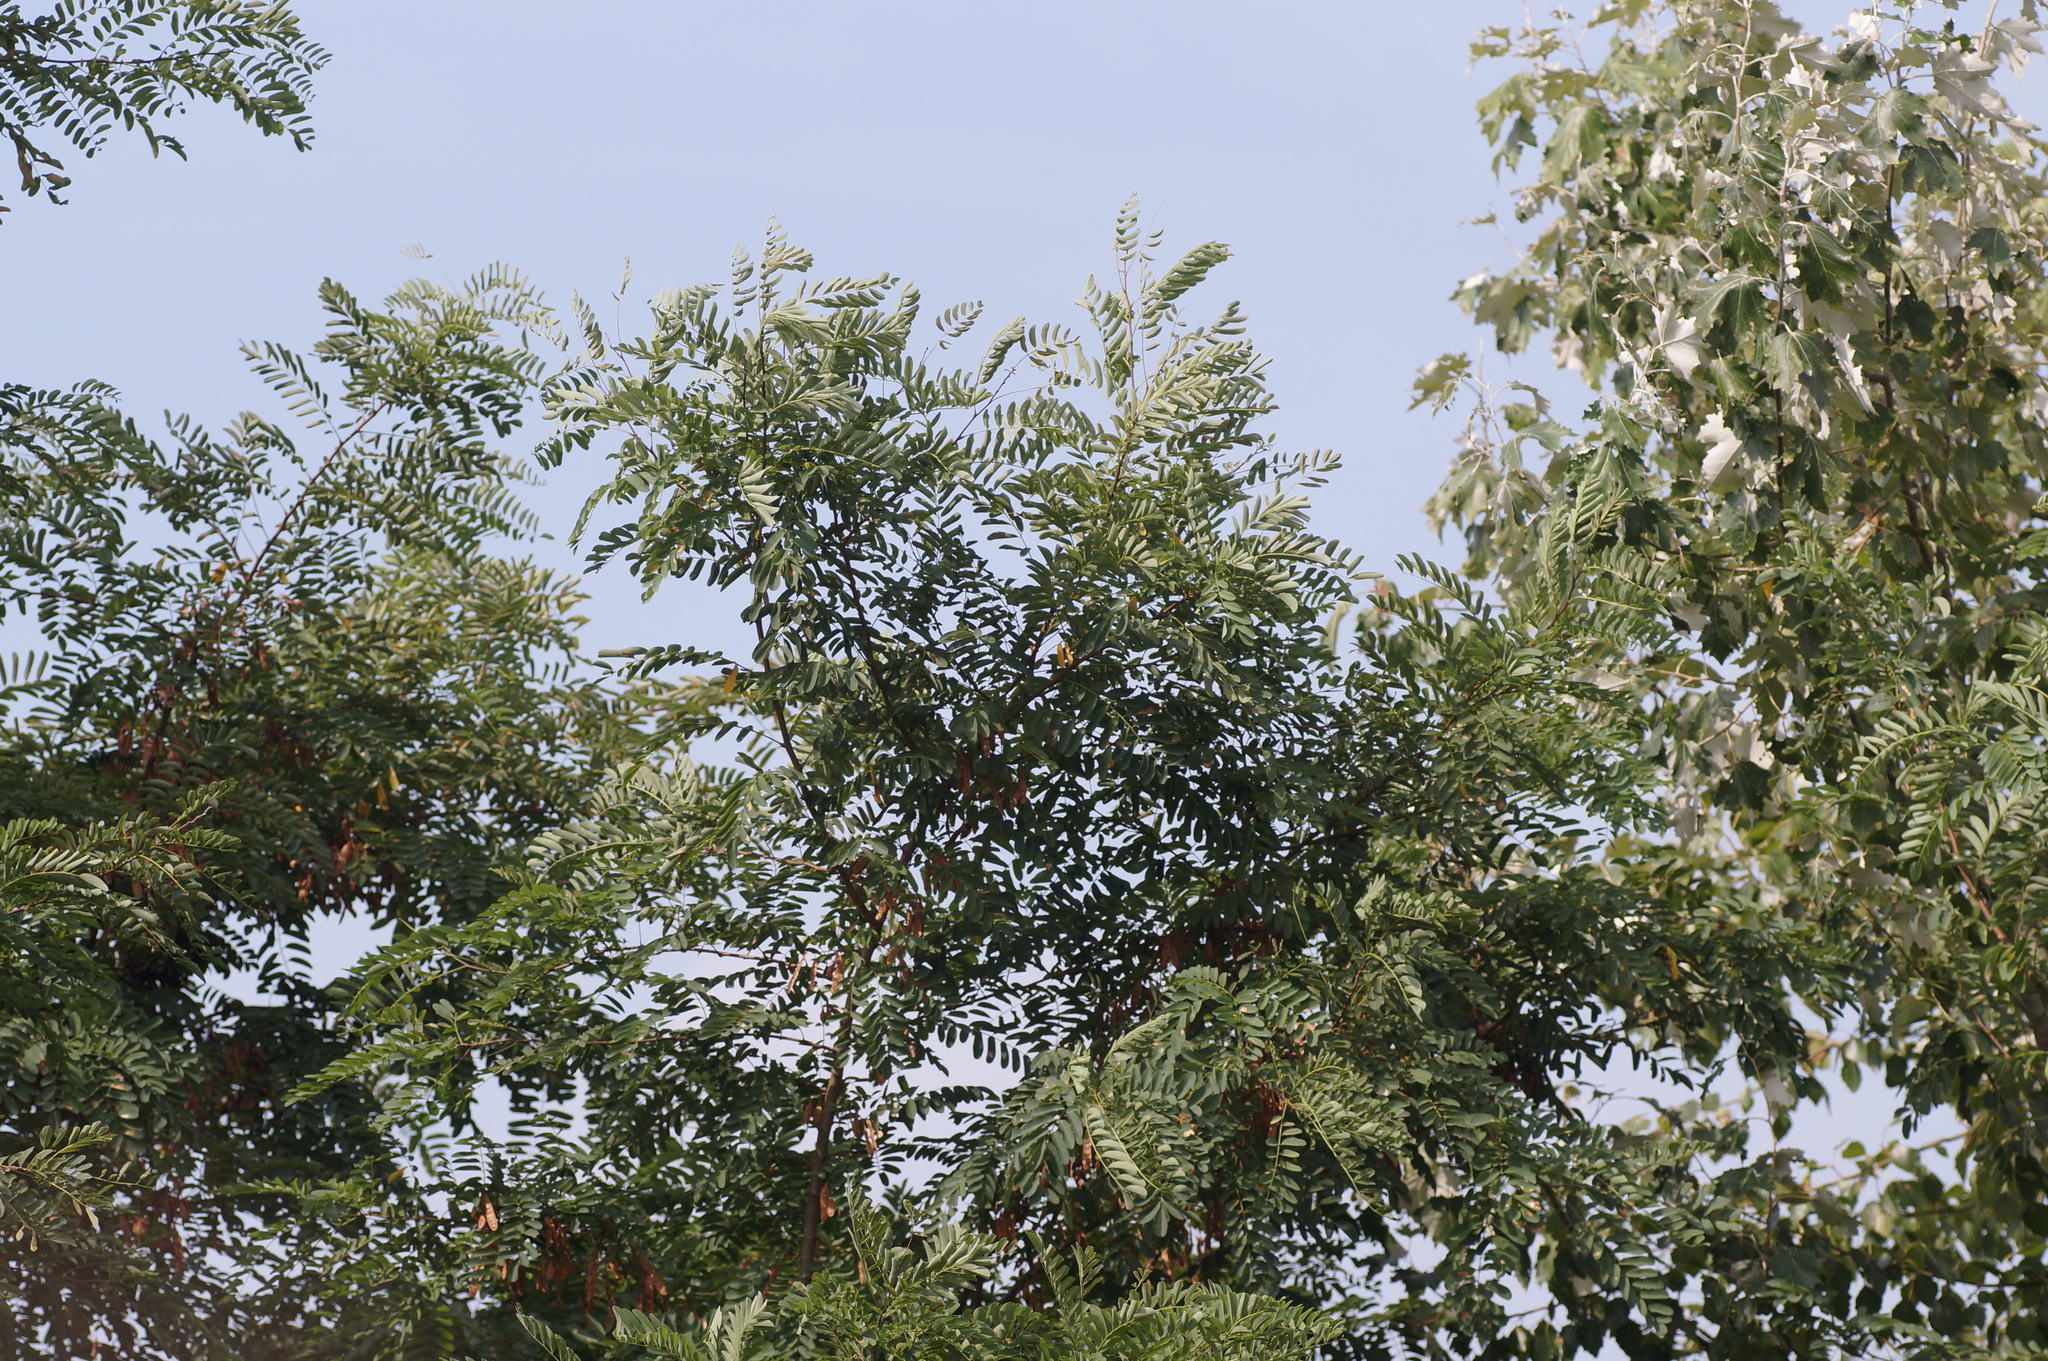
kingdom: Plantae
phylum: Tracheophyta
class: Magnoliopsida
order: Fabales
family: Fabaceae
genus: Robinia
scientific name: Robinia pseudoacacia
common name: Black locust
